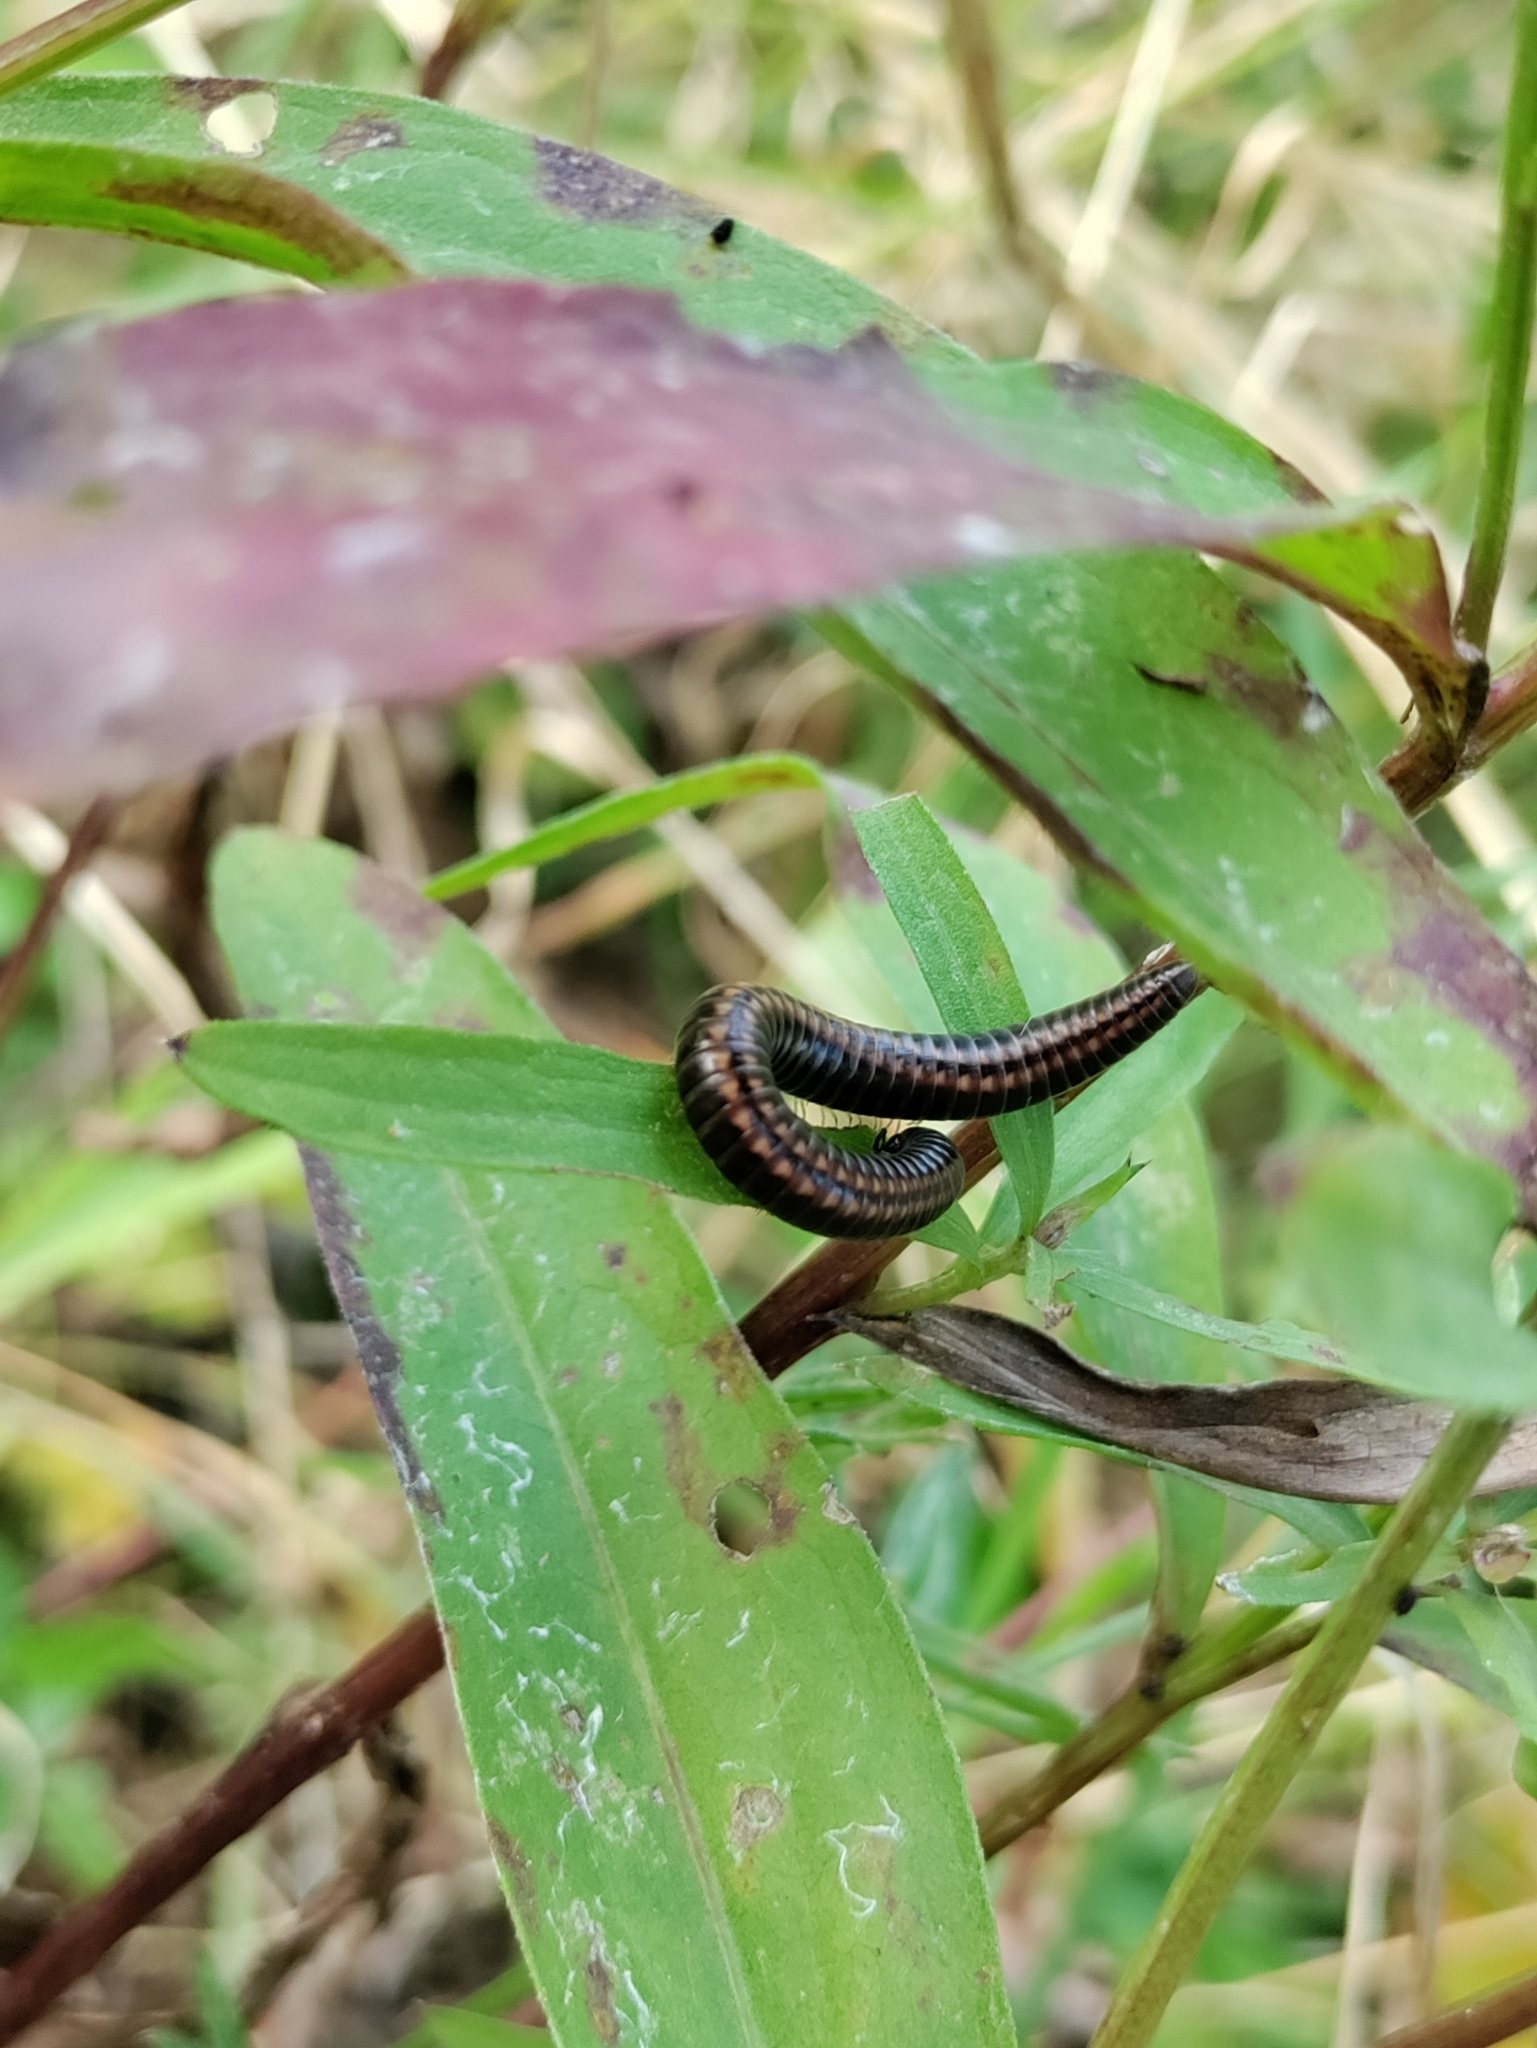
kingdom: Animalia
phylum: Arthropoda
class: Diplopoda
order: Julida
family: Julidae
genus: Ommatoiulus
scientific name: Ommatoiulus sabulosus
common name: Striped millipede
